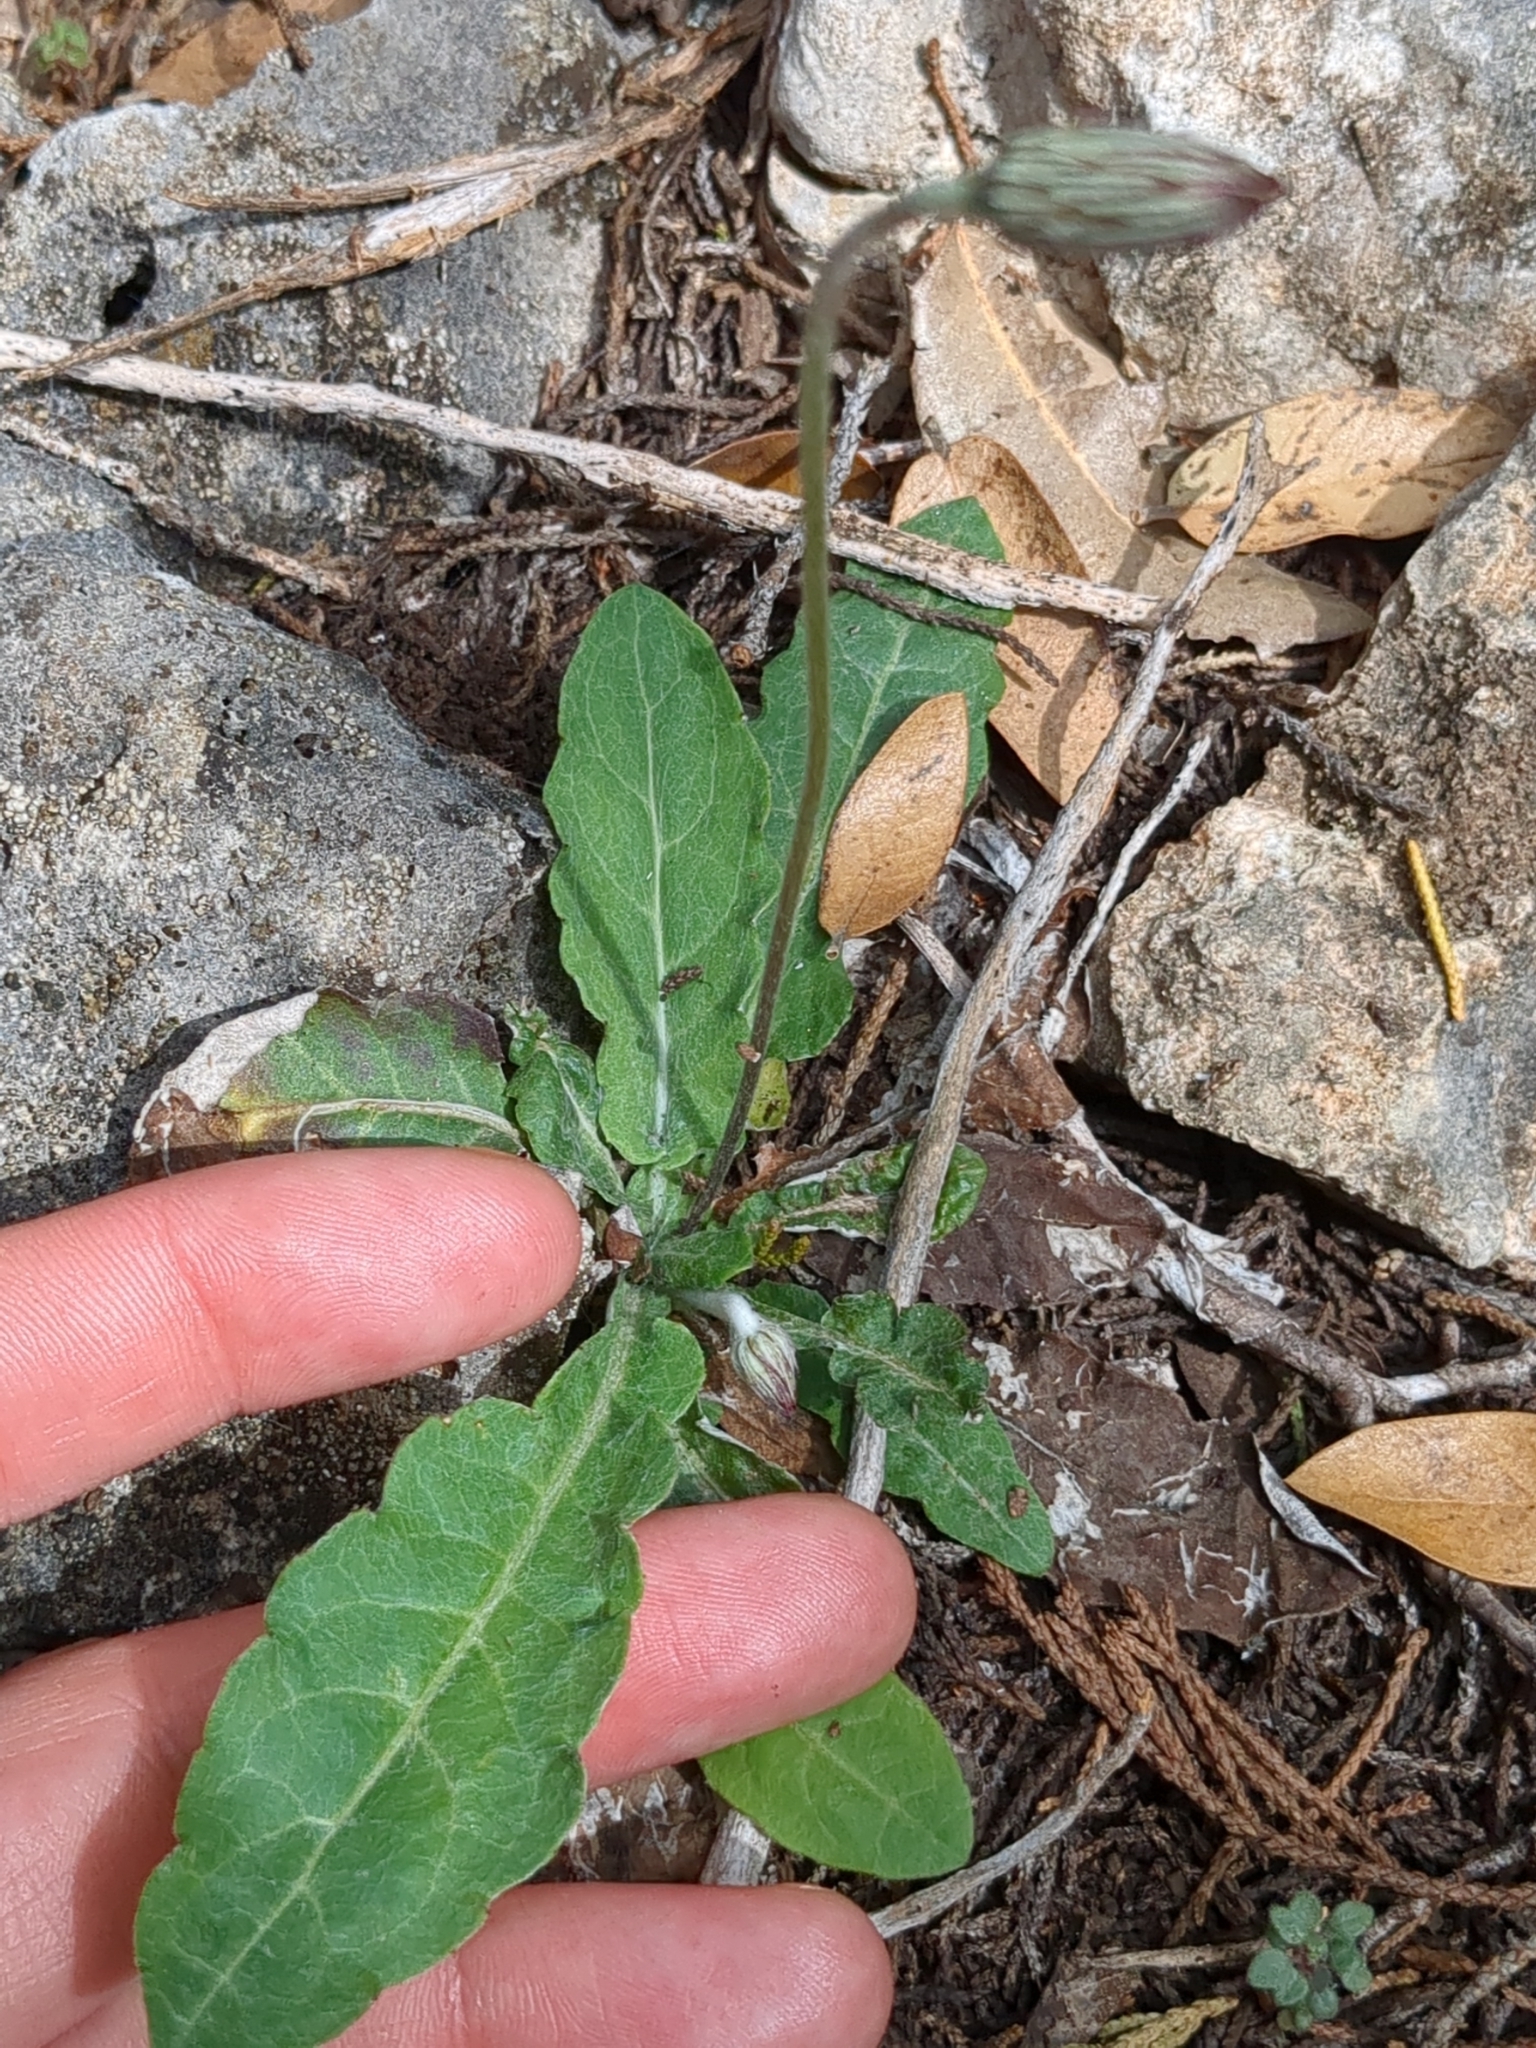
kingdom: Plantae
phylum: Tracheophyta
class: Magnoliopsida
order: Asterales
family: Asteraceae
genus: Chaptalia
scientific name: Chaptalia texana
